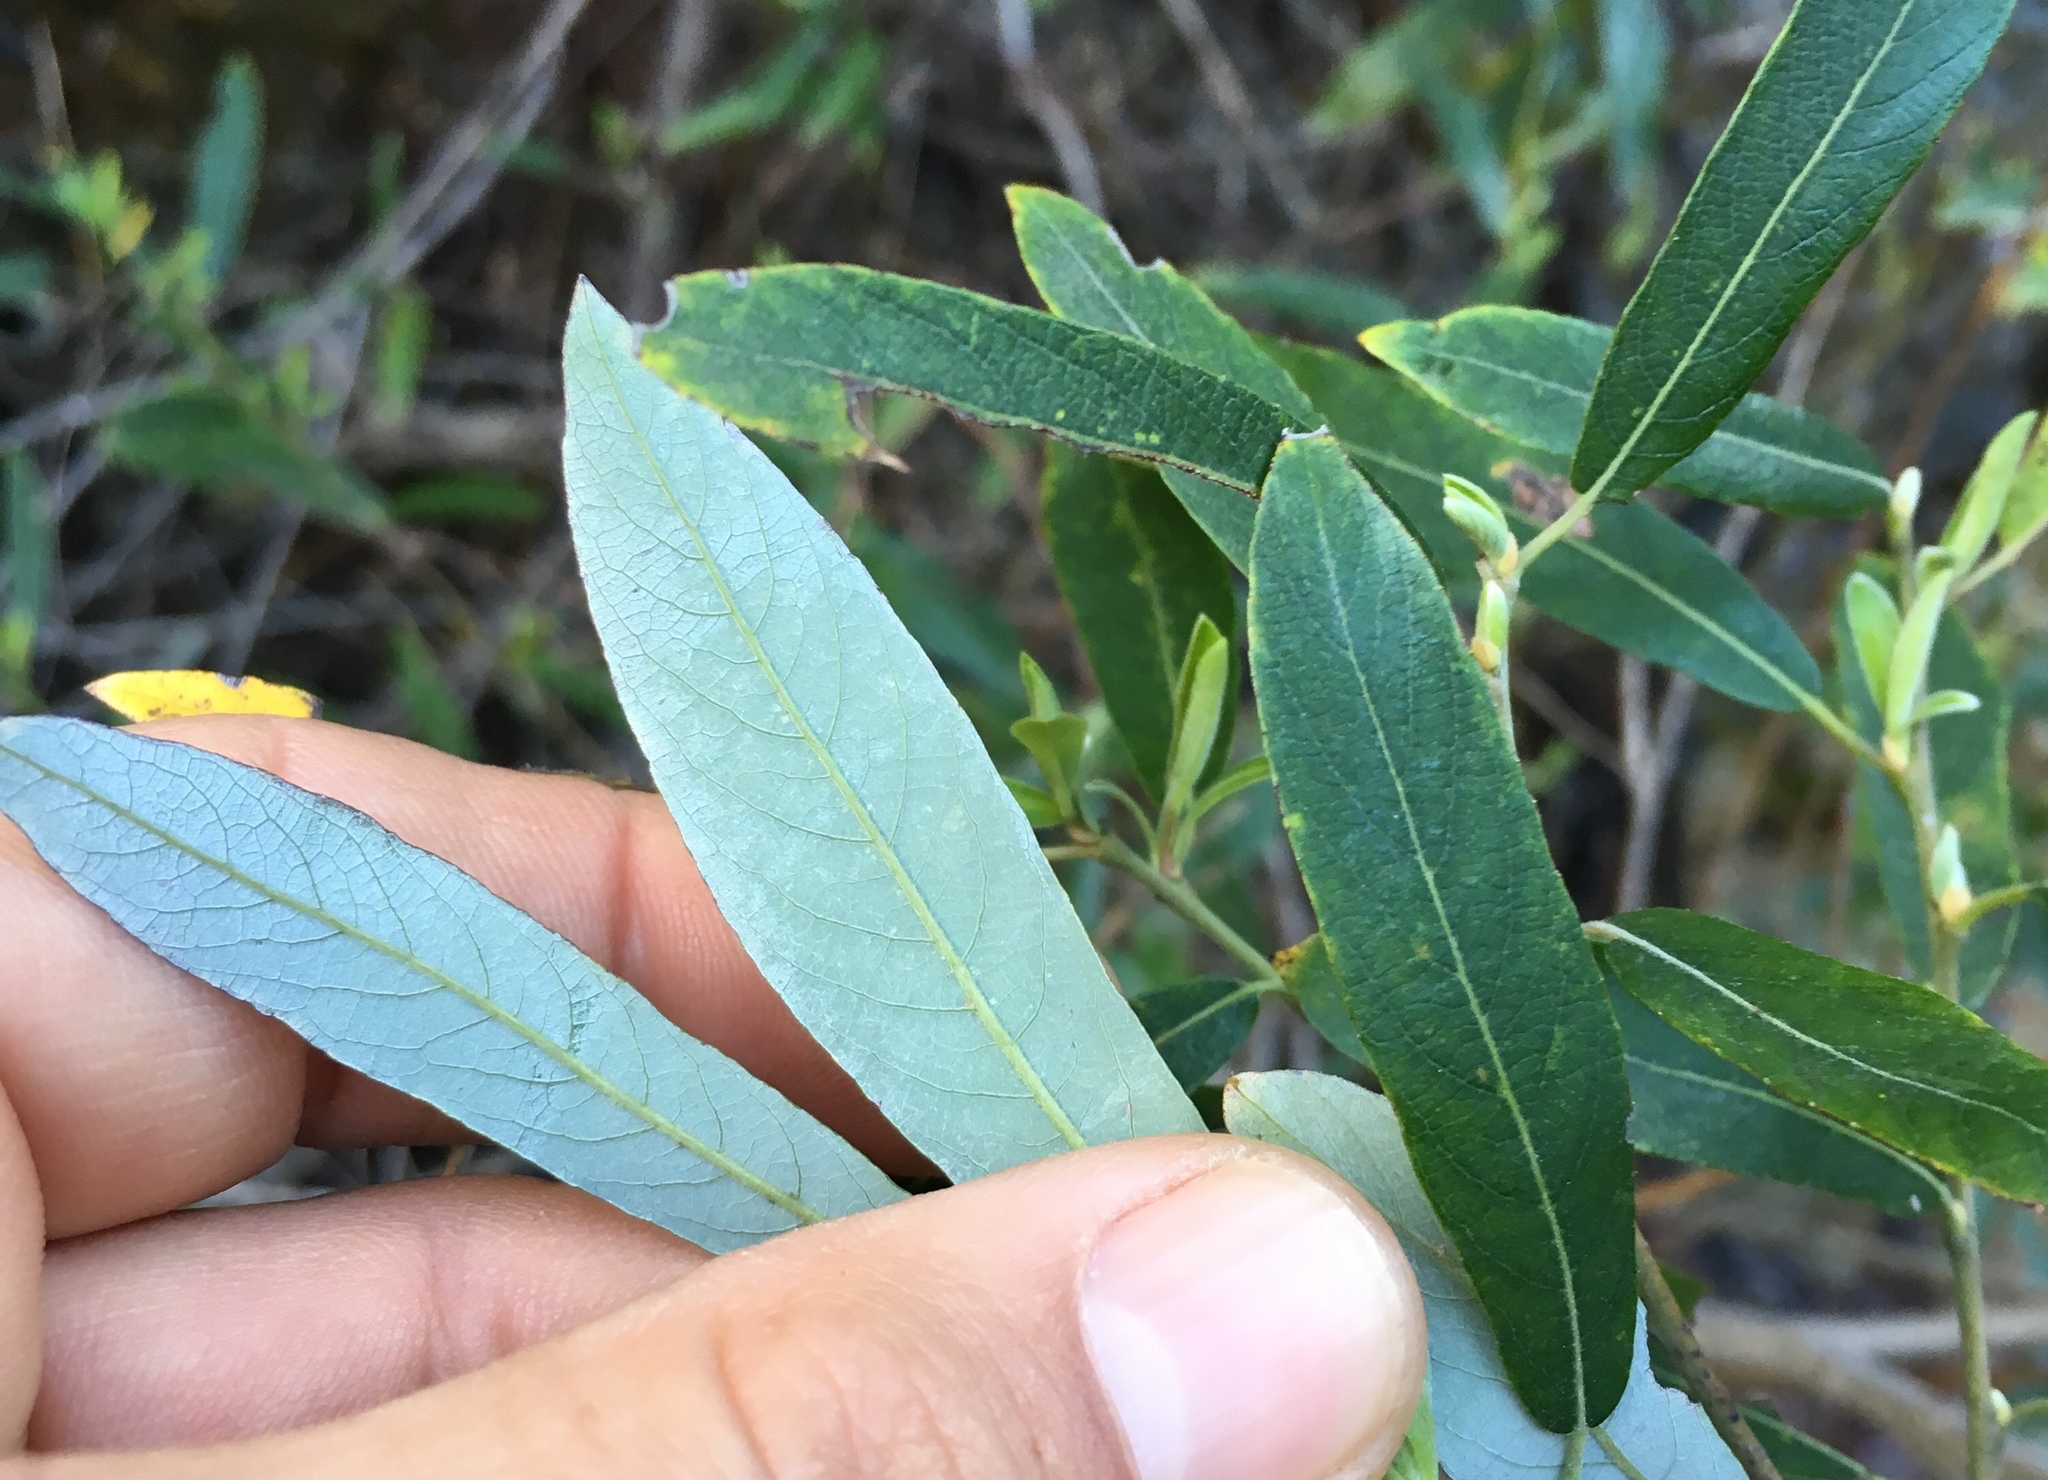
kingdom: Plantae
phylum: Tracheophyta
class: Magnoliopsida
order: Malpighiales
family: Salicaceae
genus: Salix
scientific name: Salix lasiolepis
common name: Arroyo willow
